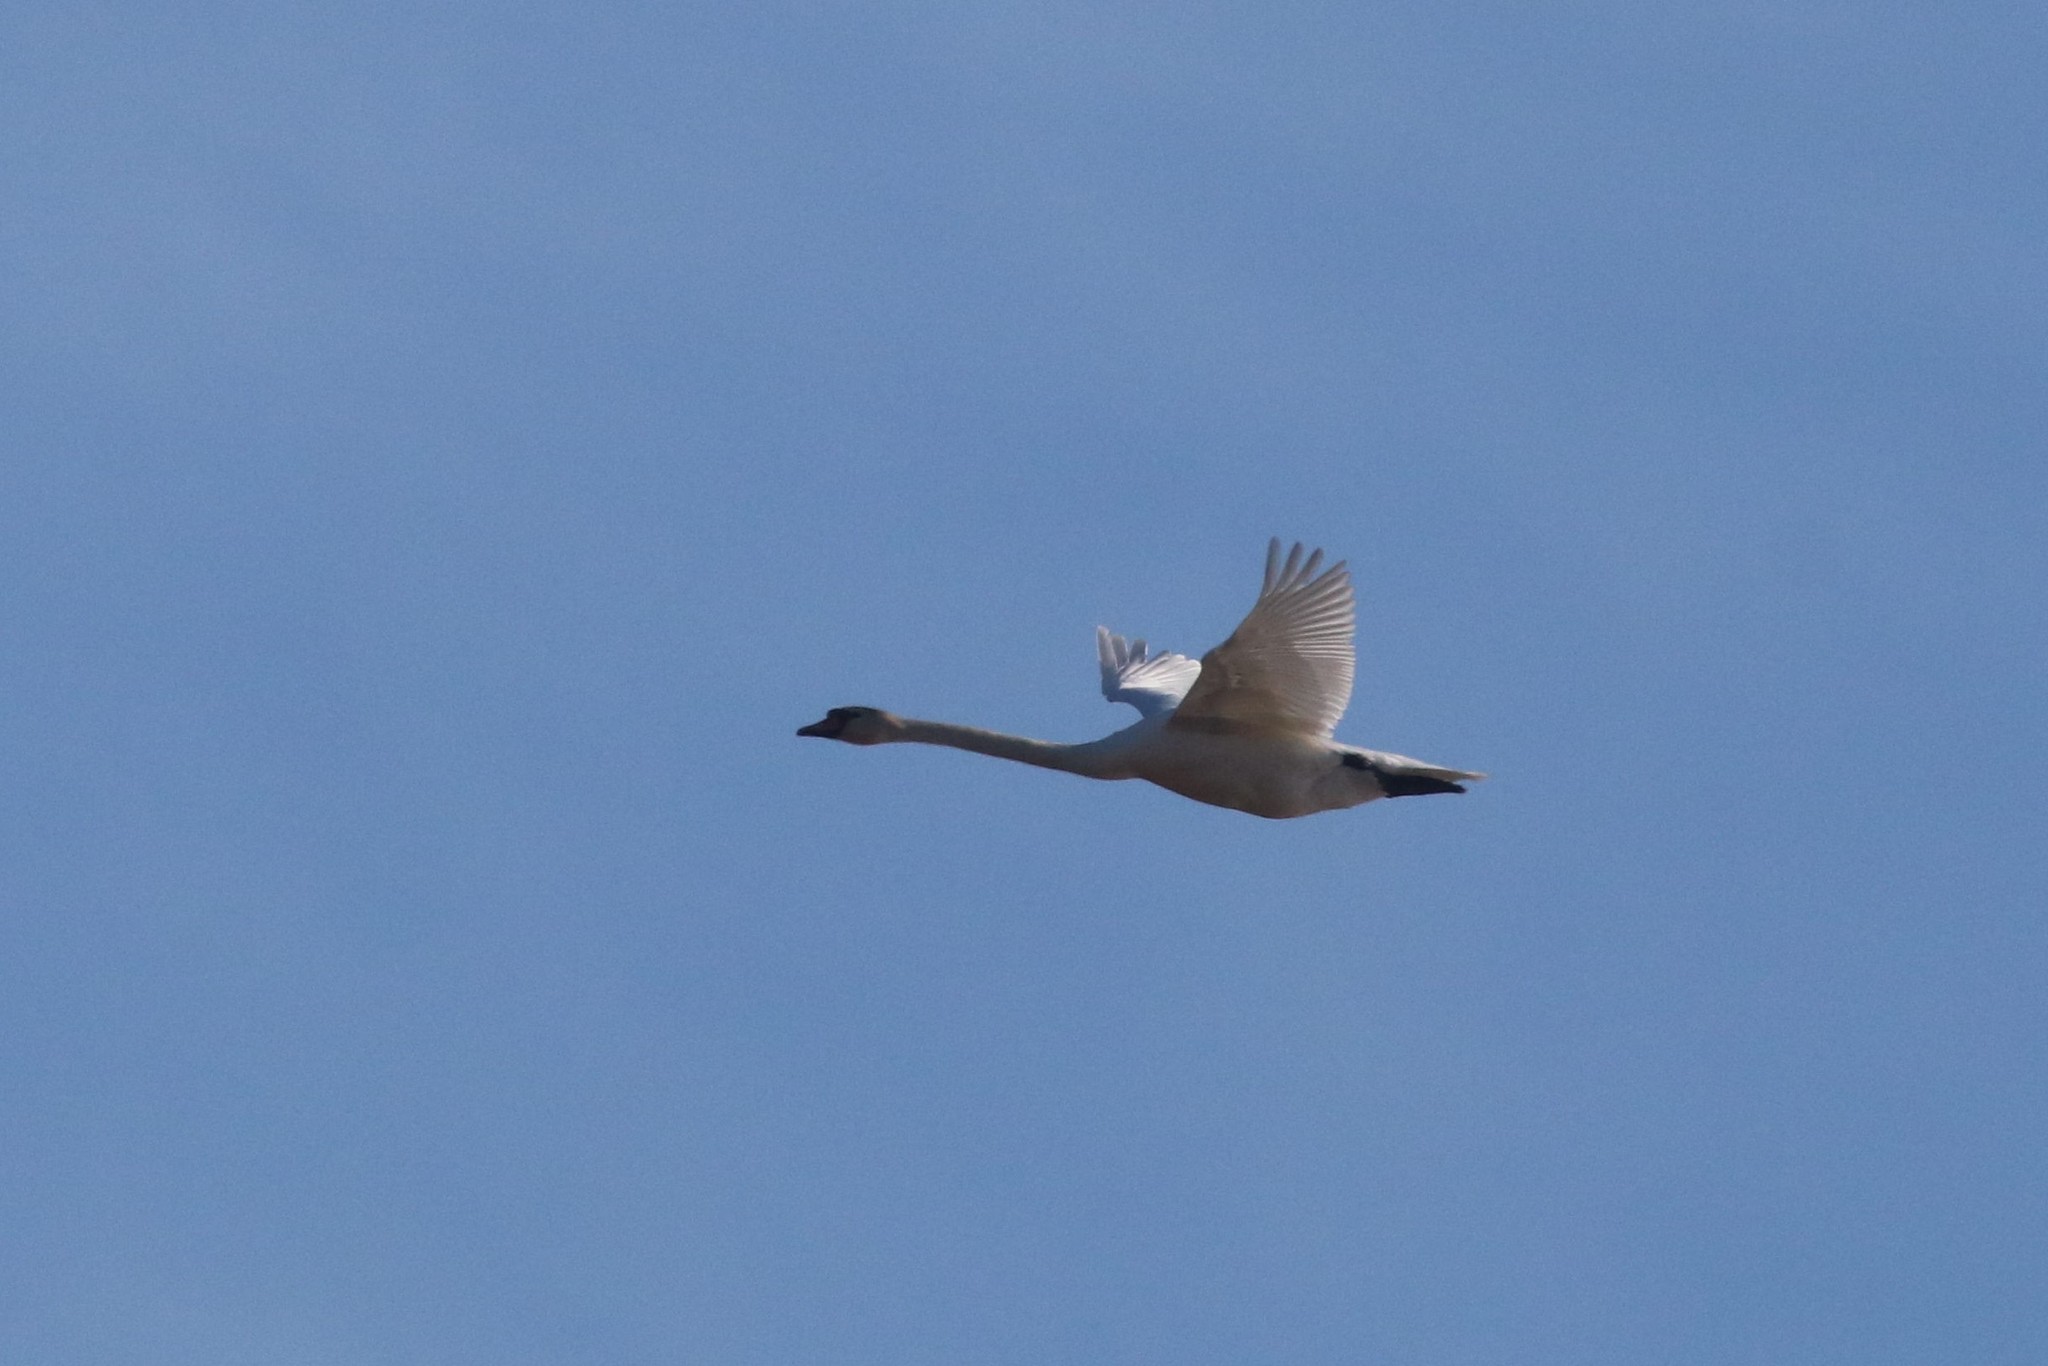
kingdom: Animalia
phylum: Chordata
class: Aves
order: Anseriformes
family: Anatidae
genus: Cygnus
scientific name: Cygnus olor
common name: Mute swan
